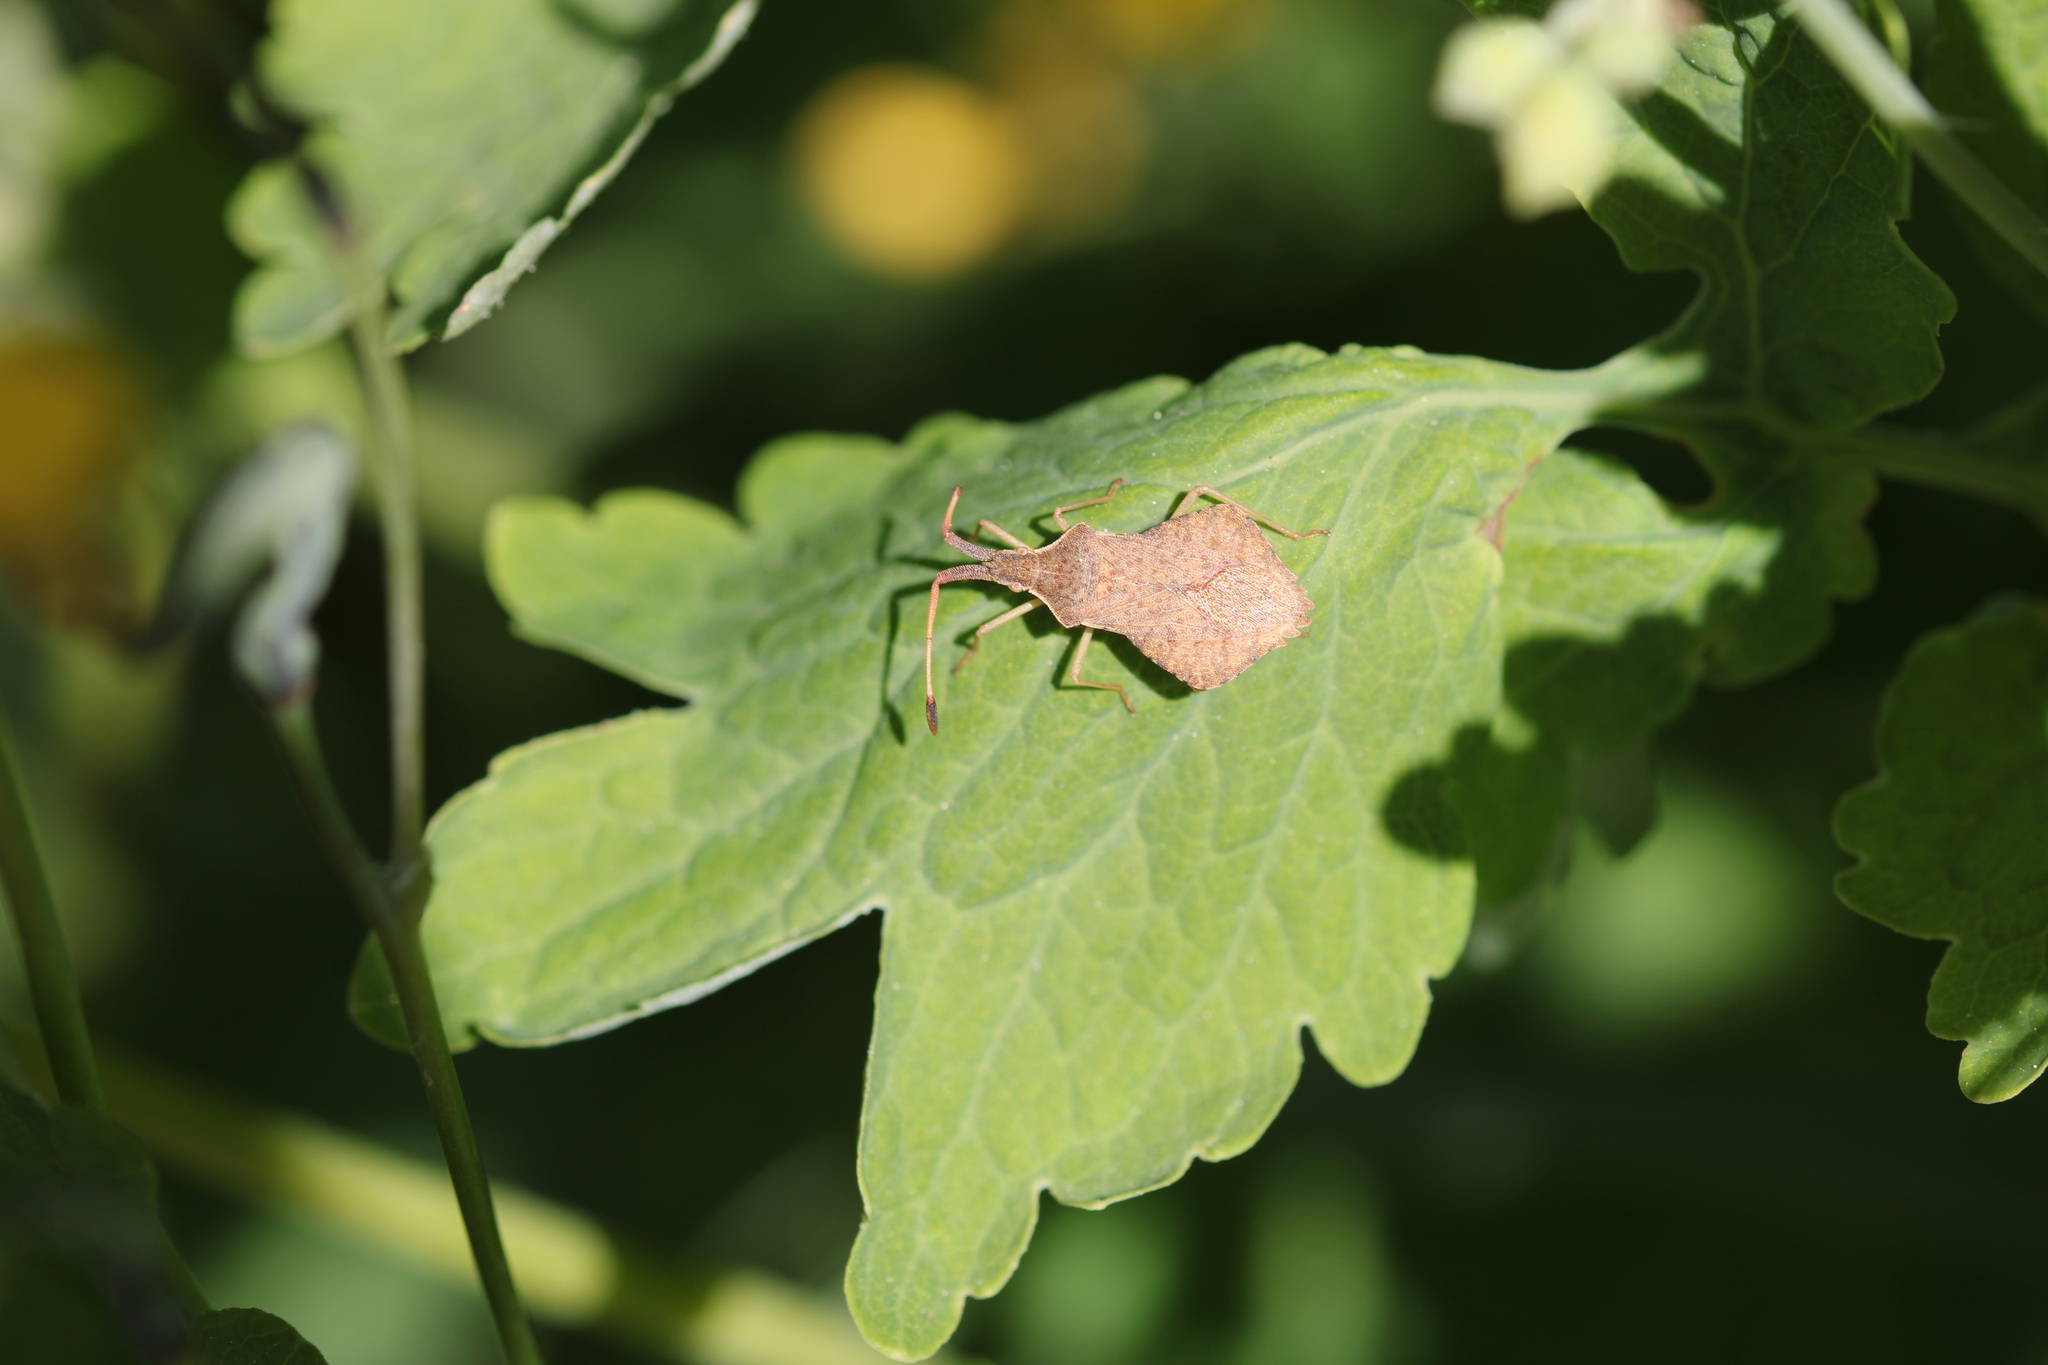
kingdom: Animalia
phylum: Arthropoda
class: Insecta
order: Hemiptera
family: Coreidae
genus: Syromastus
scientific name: Syromastus rhombeus
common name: Rhombic leatherbug
